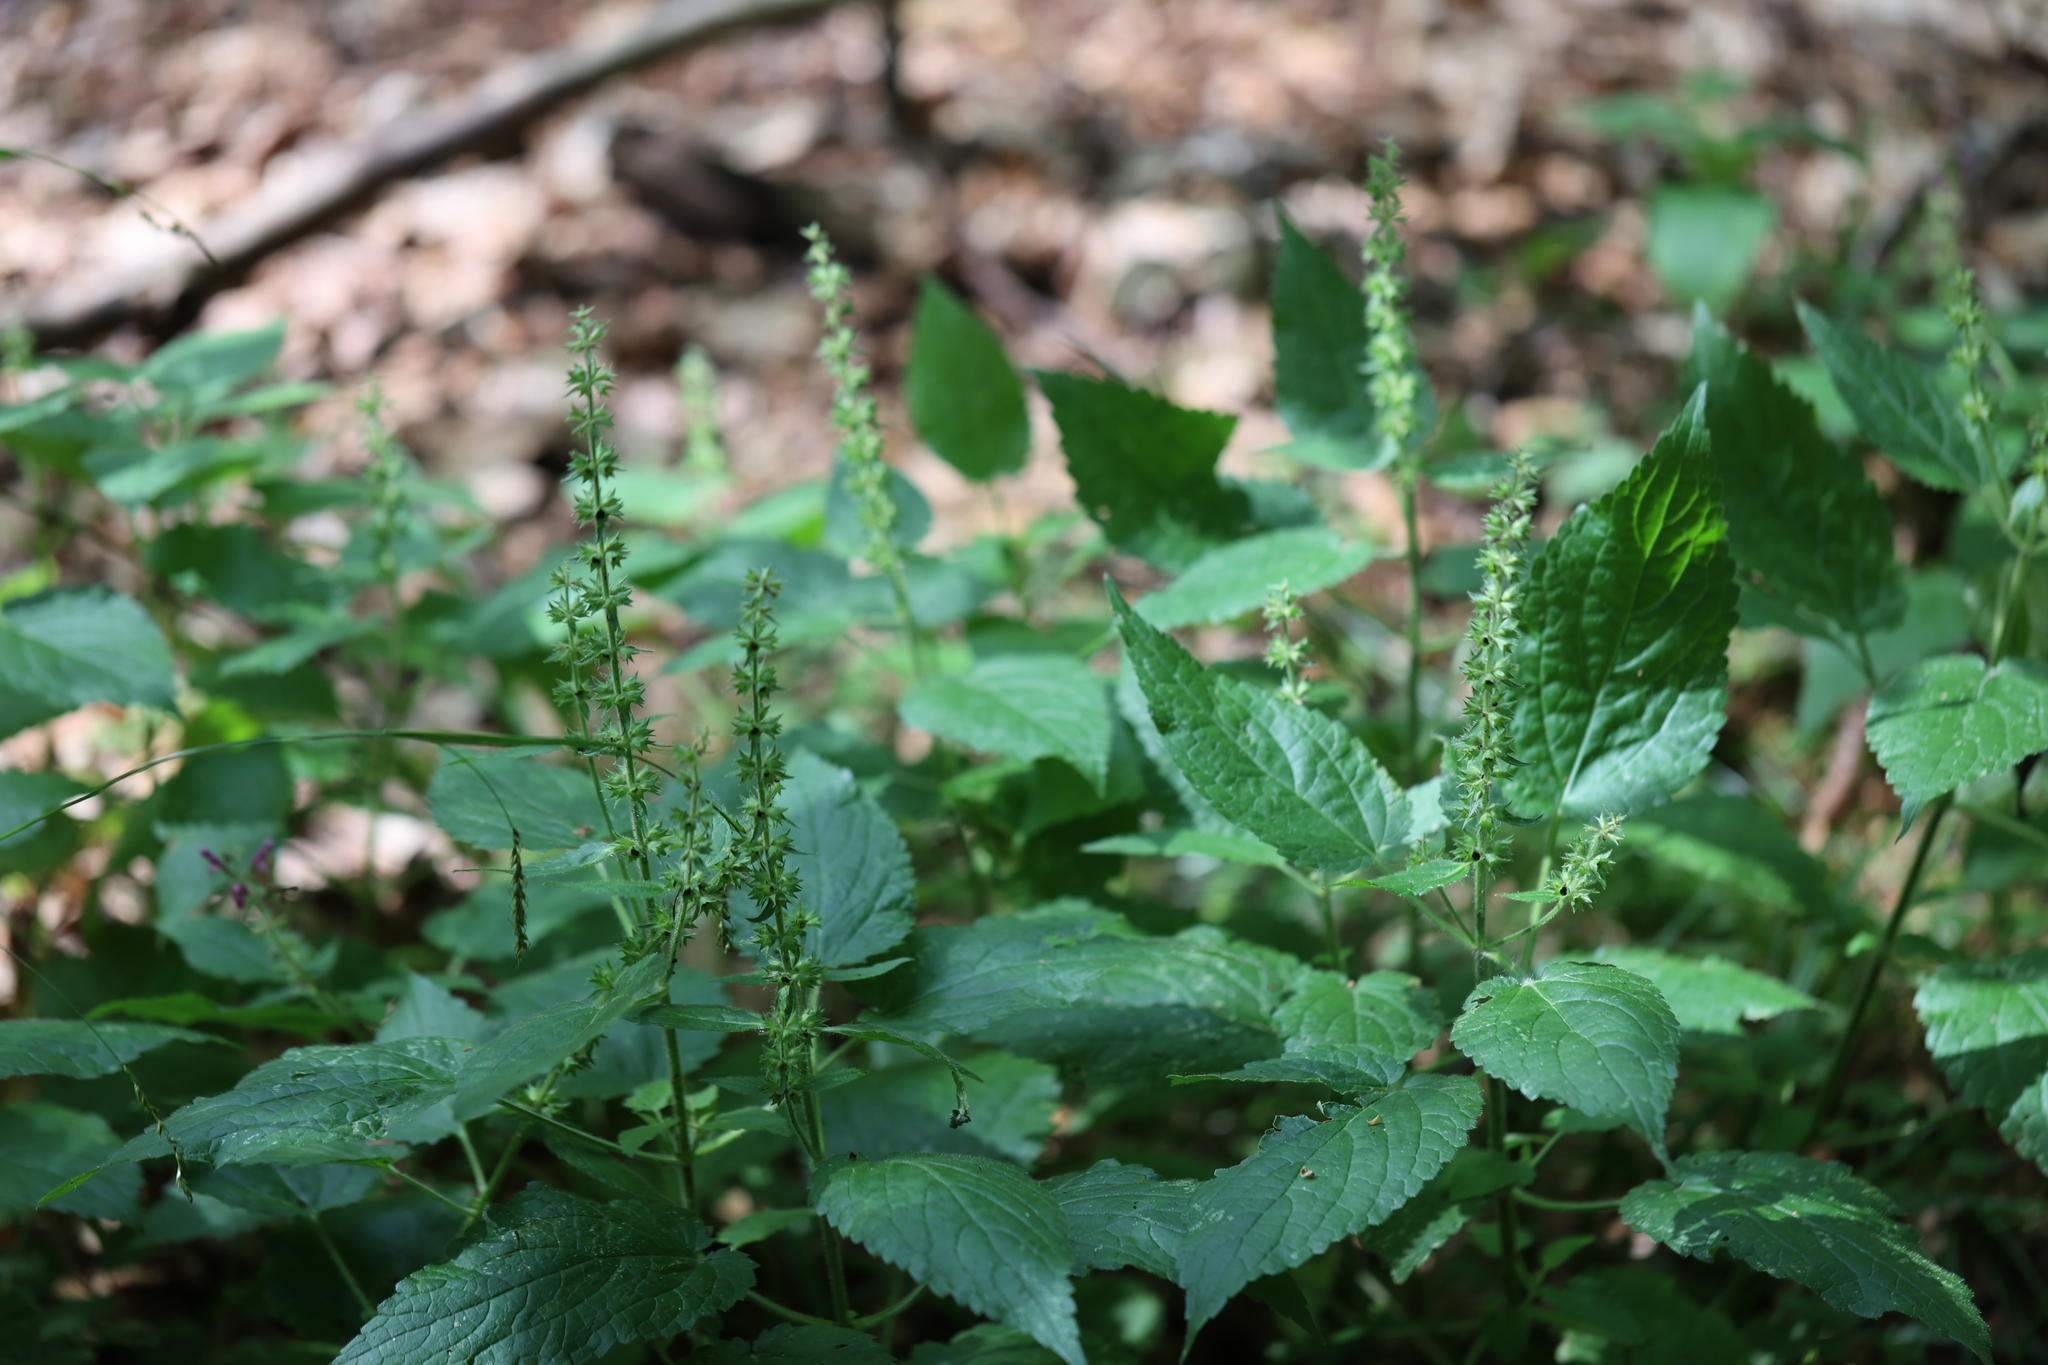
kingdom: Plantae
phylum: Tracheophyta
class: Magnoliopsida
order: Lamiales
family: Lamiaceae
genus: Stachys
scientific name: Stachys sylvatica
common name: Hedge woundwort
